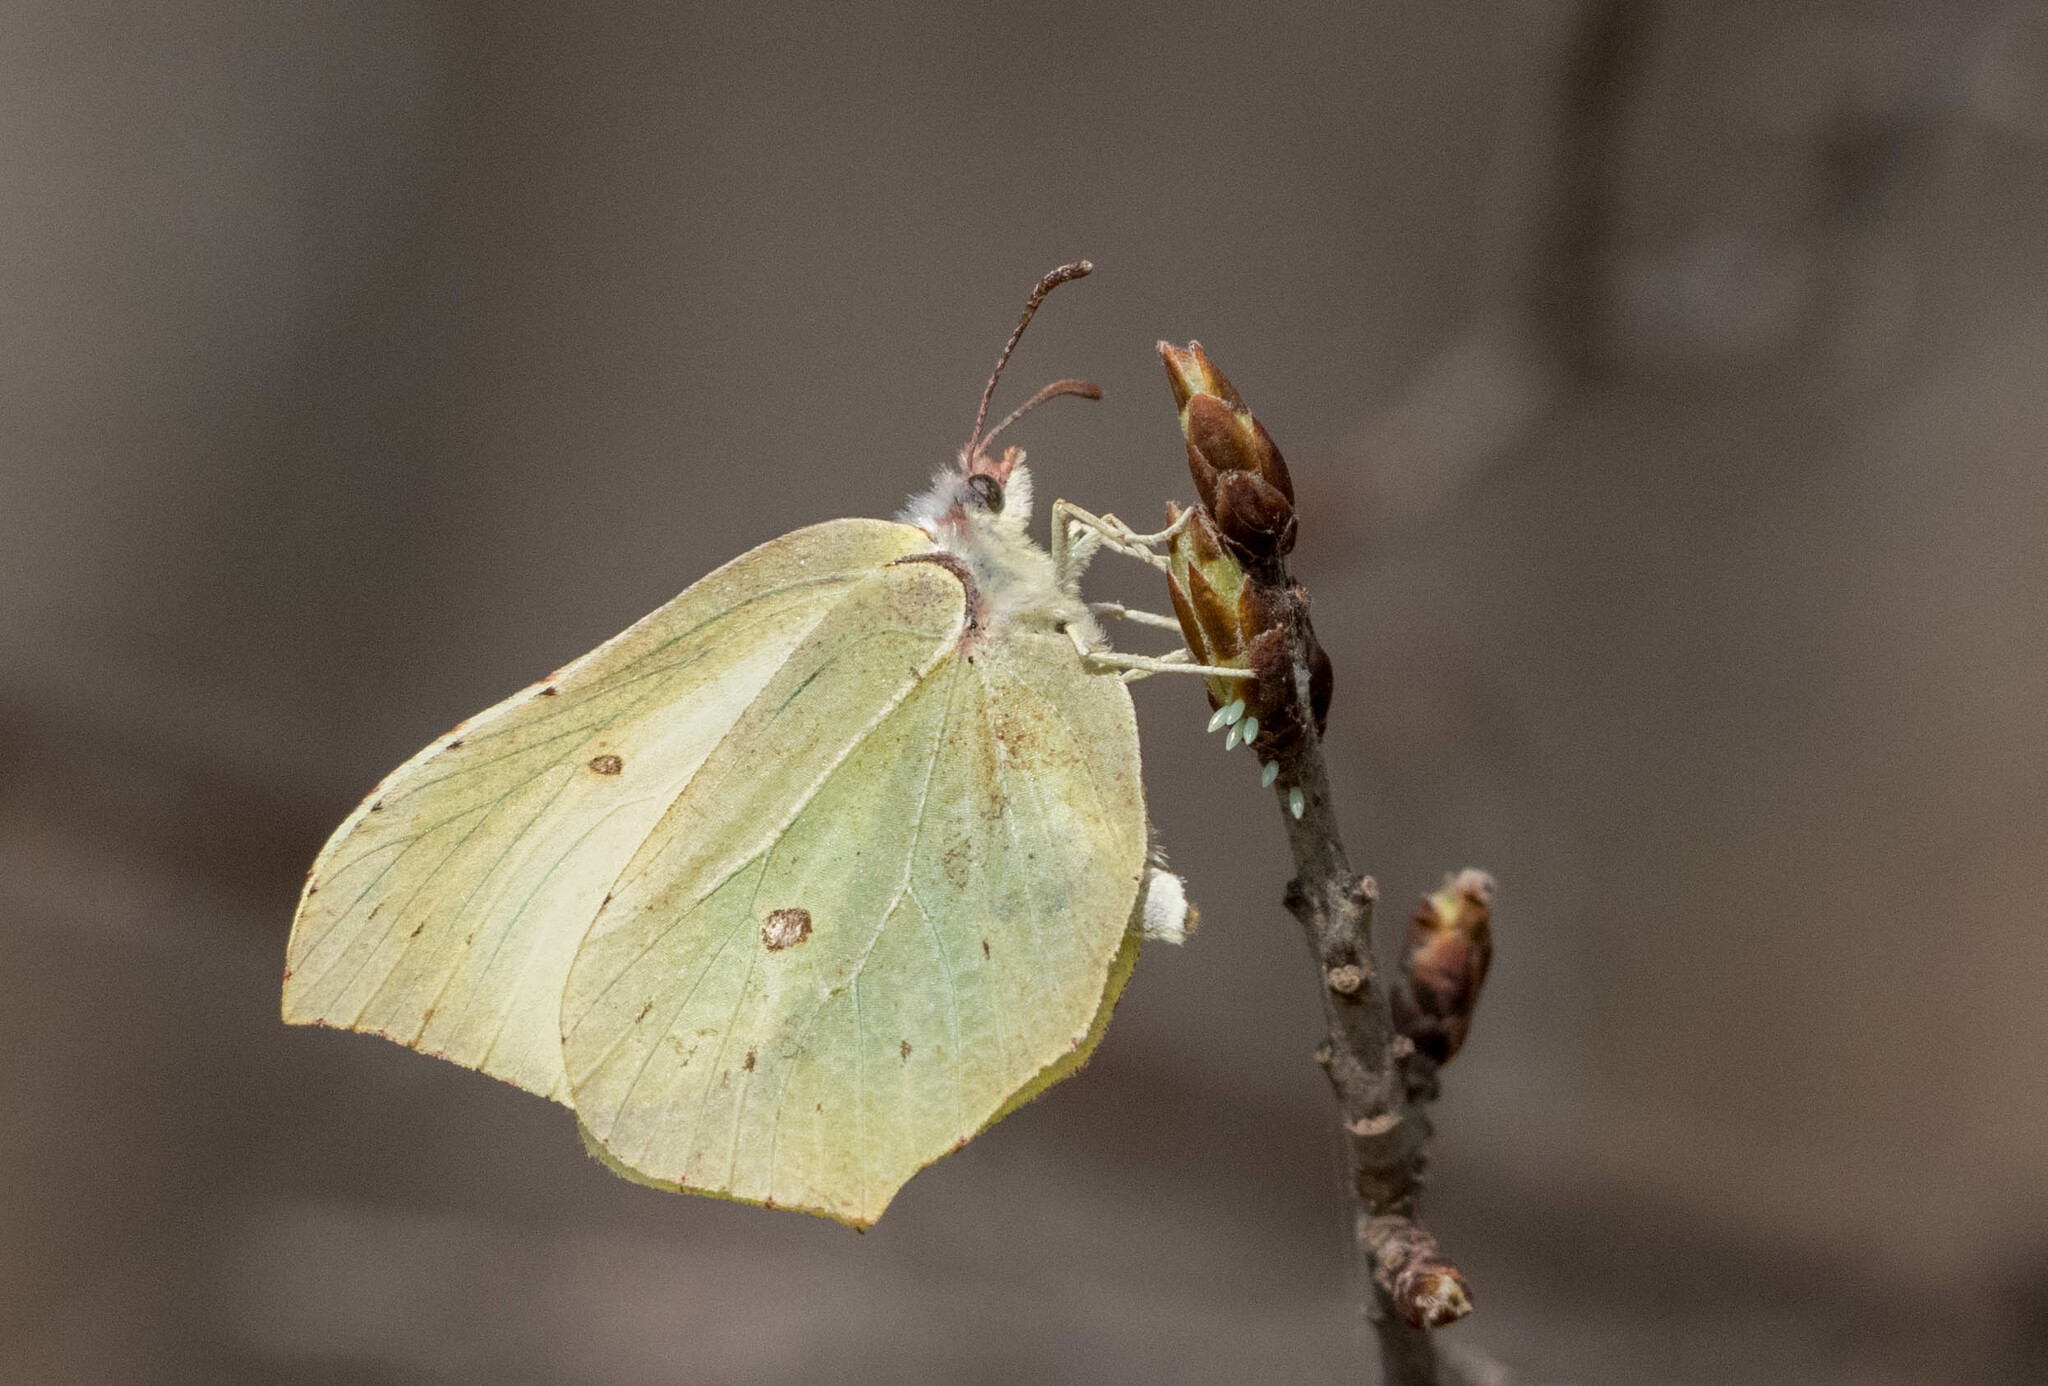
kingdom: Animalia
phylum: Arthropoda
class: Insecta
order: Lepidoptera
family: Pieridae
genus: Gonepteryx
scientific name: Gonepteryx rhamni
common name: Brimstone
